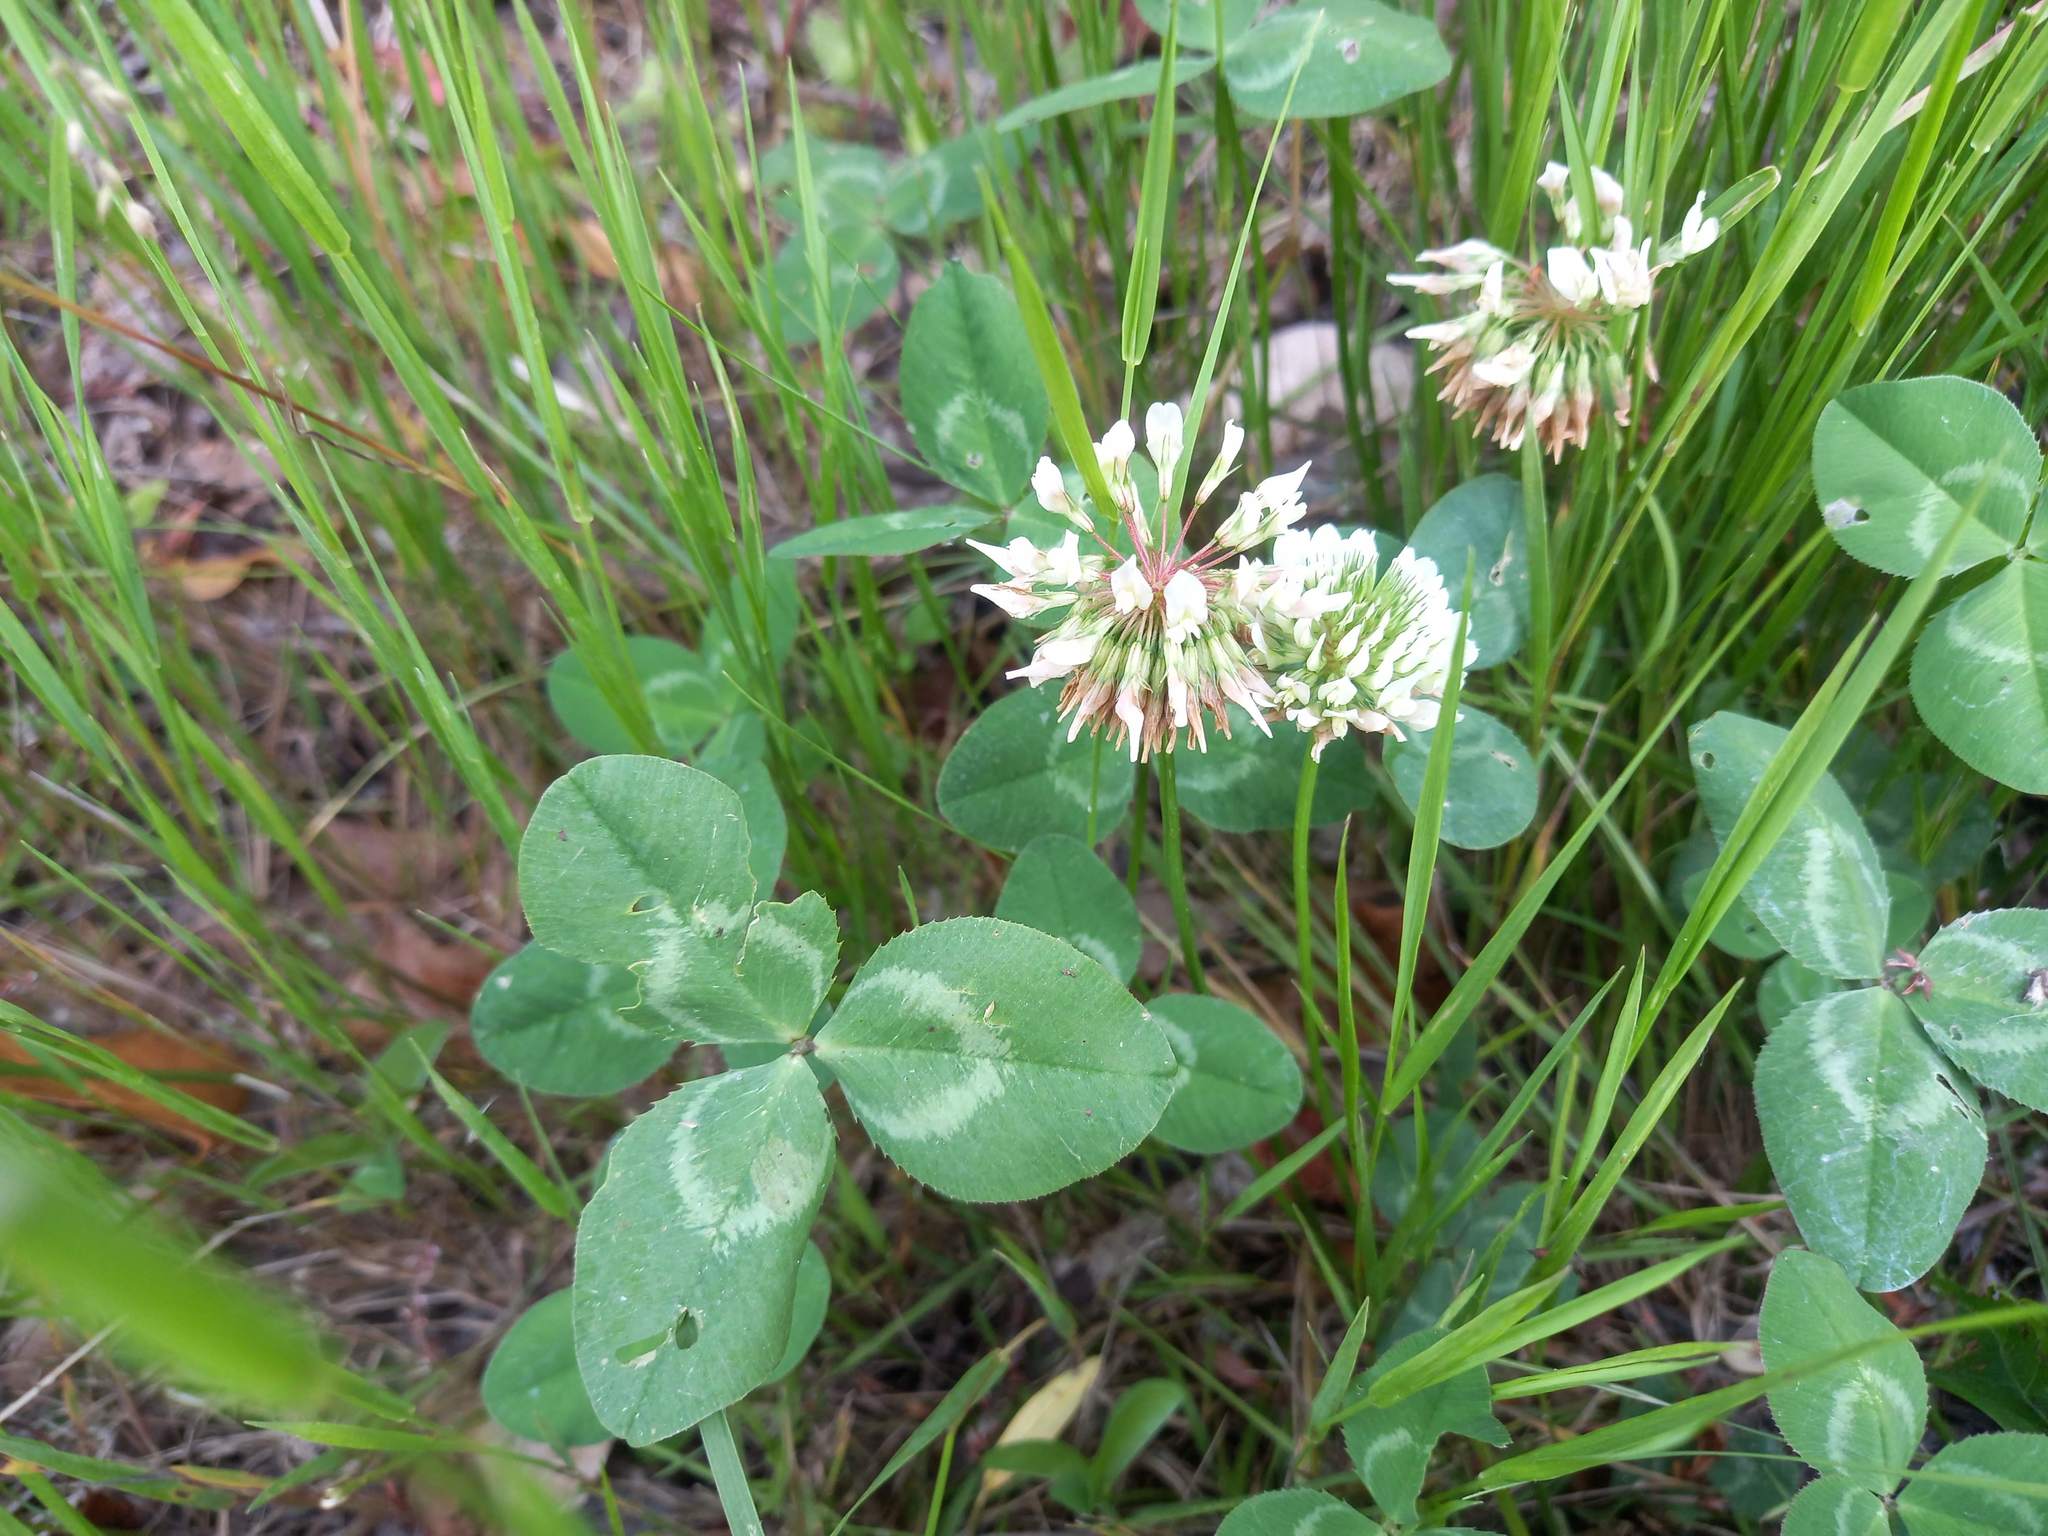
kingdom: Plantae
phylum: Tracheophyta
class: Magnoliopsida
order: Fabales
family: Fabaceae
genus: Trifolium
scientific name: Trifolium repens
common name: White clover
